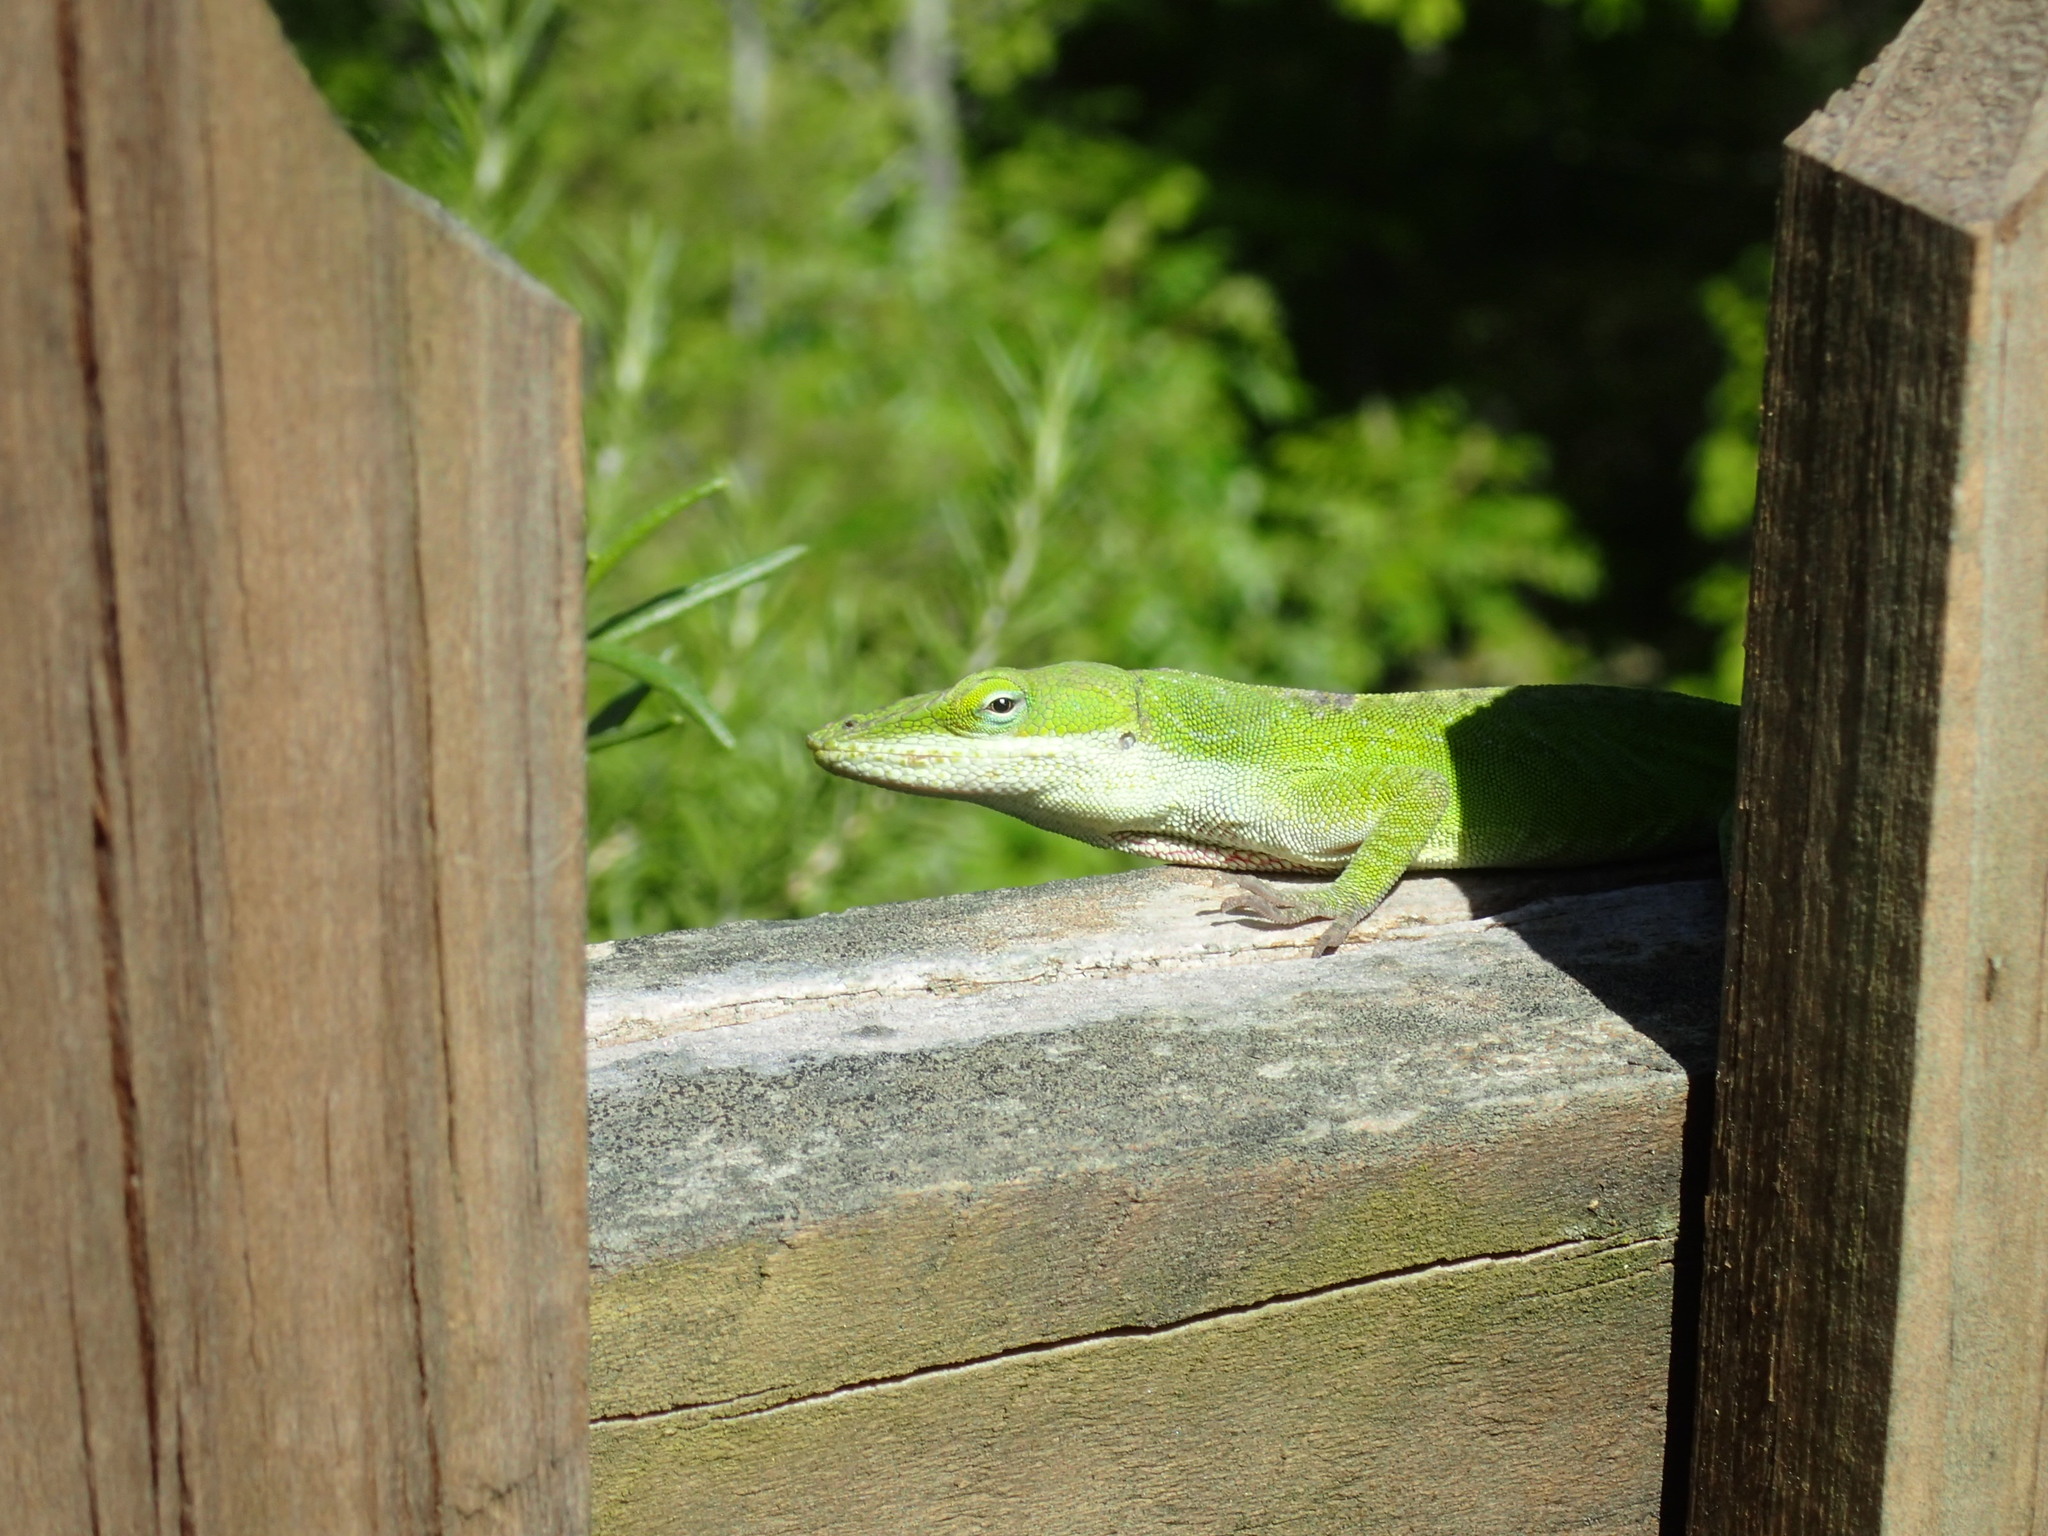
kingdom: Animalia
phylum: Chordata
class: Squamata
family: Dactyloidae
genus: Anolis
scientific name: Anolis carolinensis
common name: Green anole
